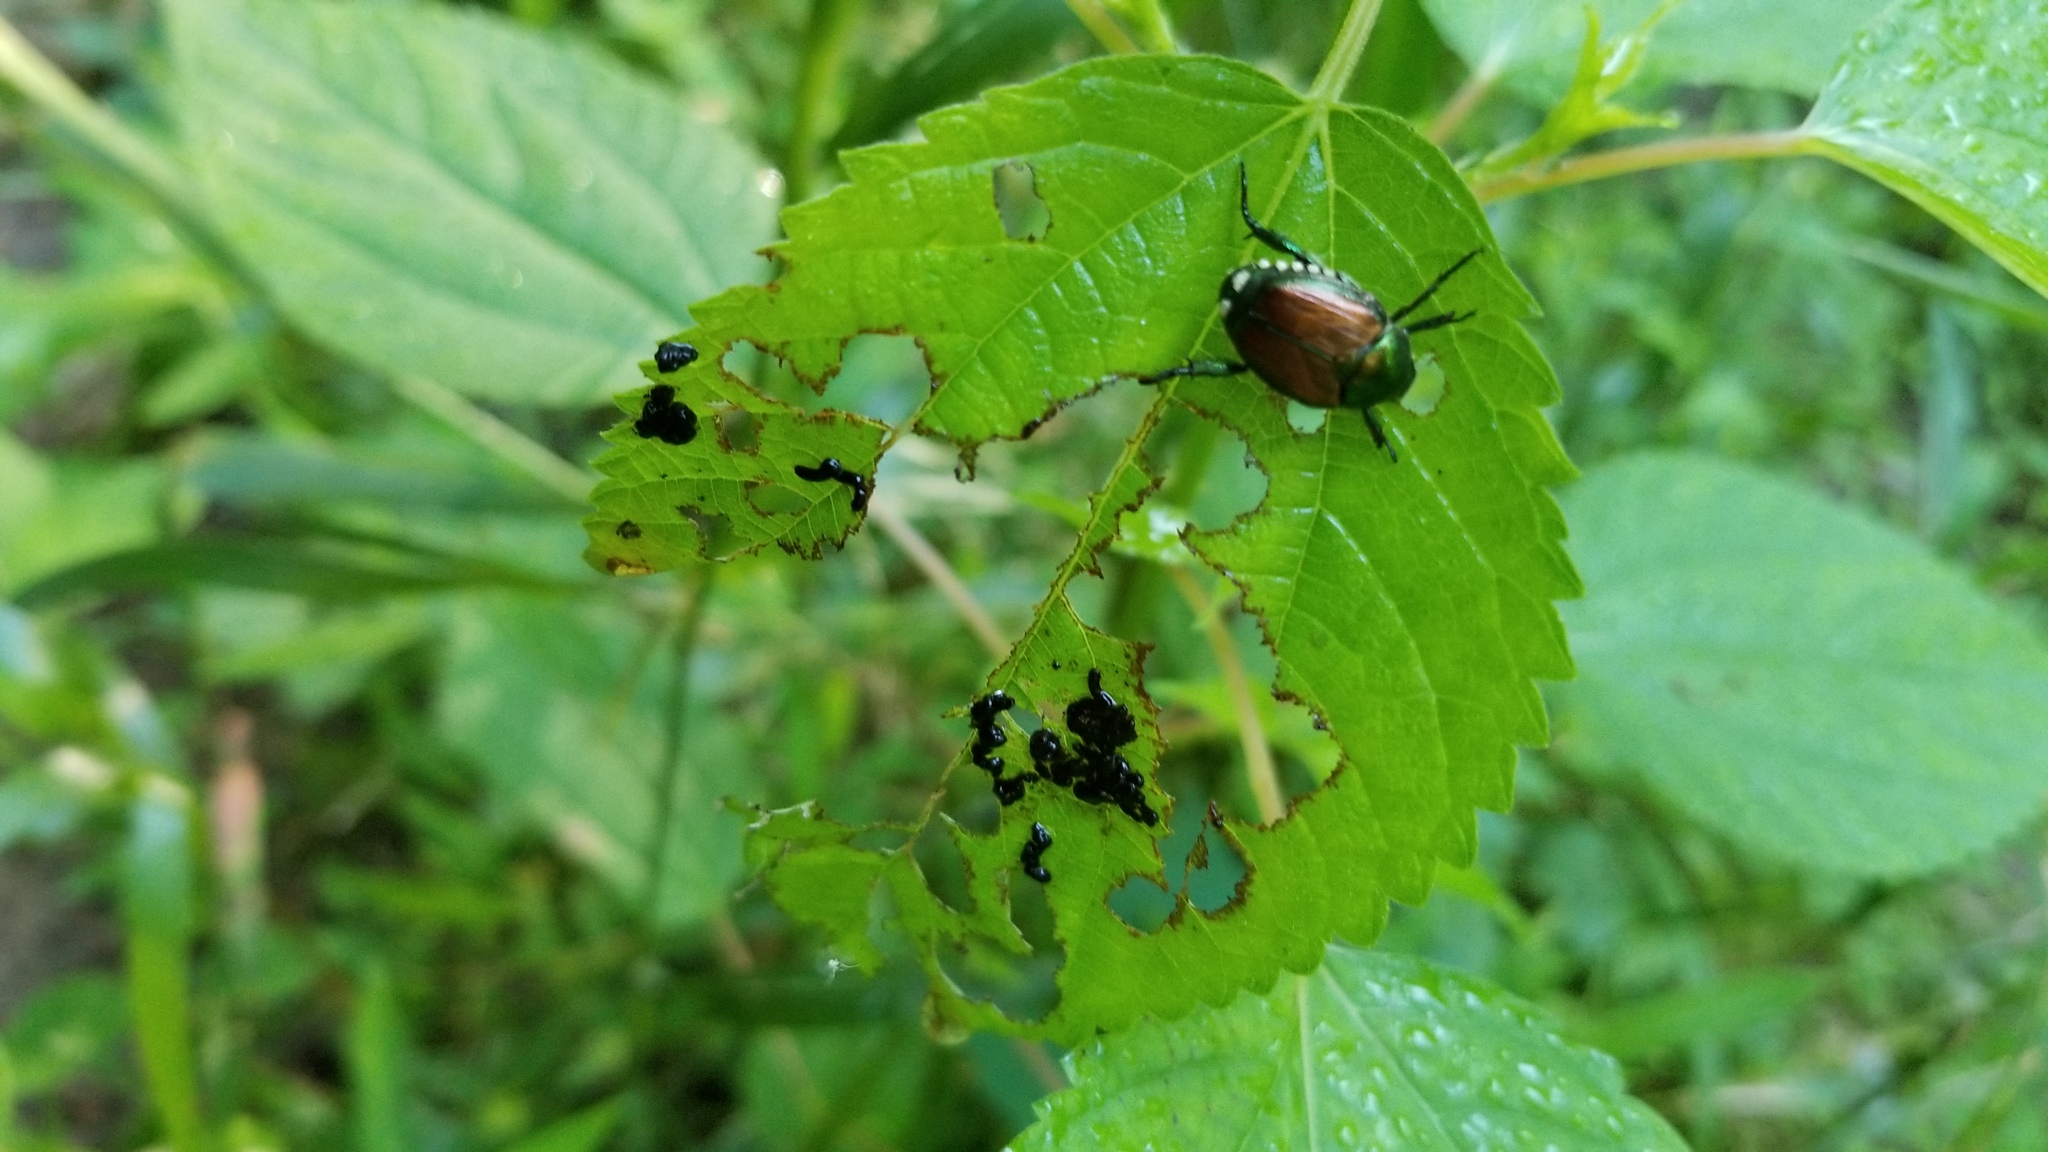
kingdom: Animalia
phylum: Arthropoda
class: Insecta
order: Coleoptera
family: Scarabaeidae
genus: Popillia
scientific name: Popillia japonica
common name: Japanese beetle
